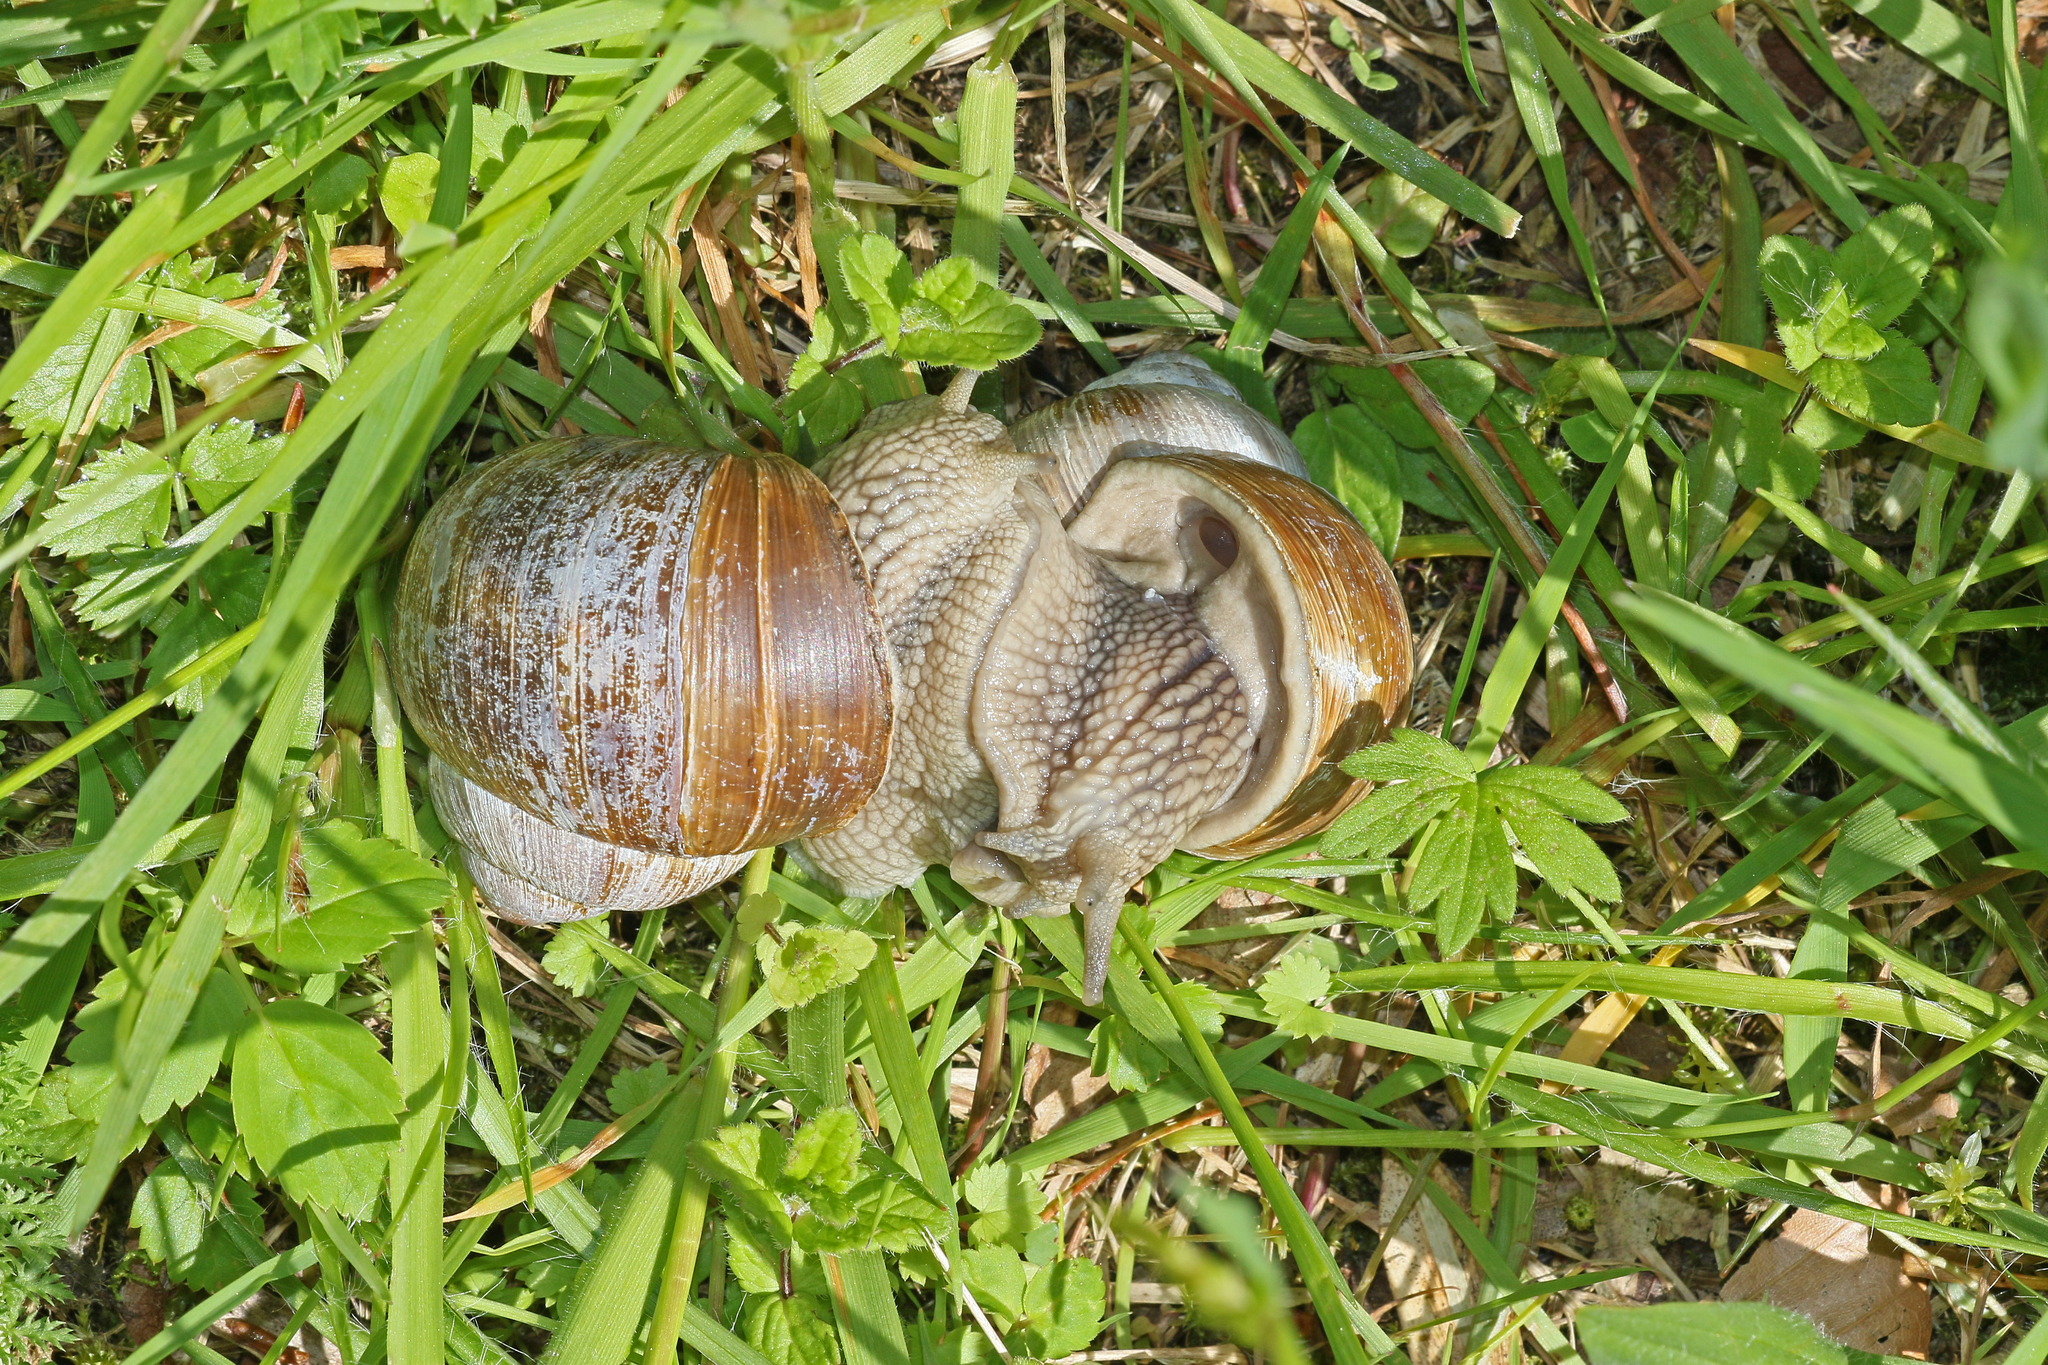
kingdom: Animalia
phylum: Mollusca
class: Gastropoda
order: Stylommatophora
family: Helicidae
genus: Helix
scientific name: Helix pomatia
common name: Roman snail
